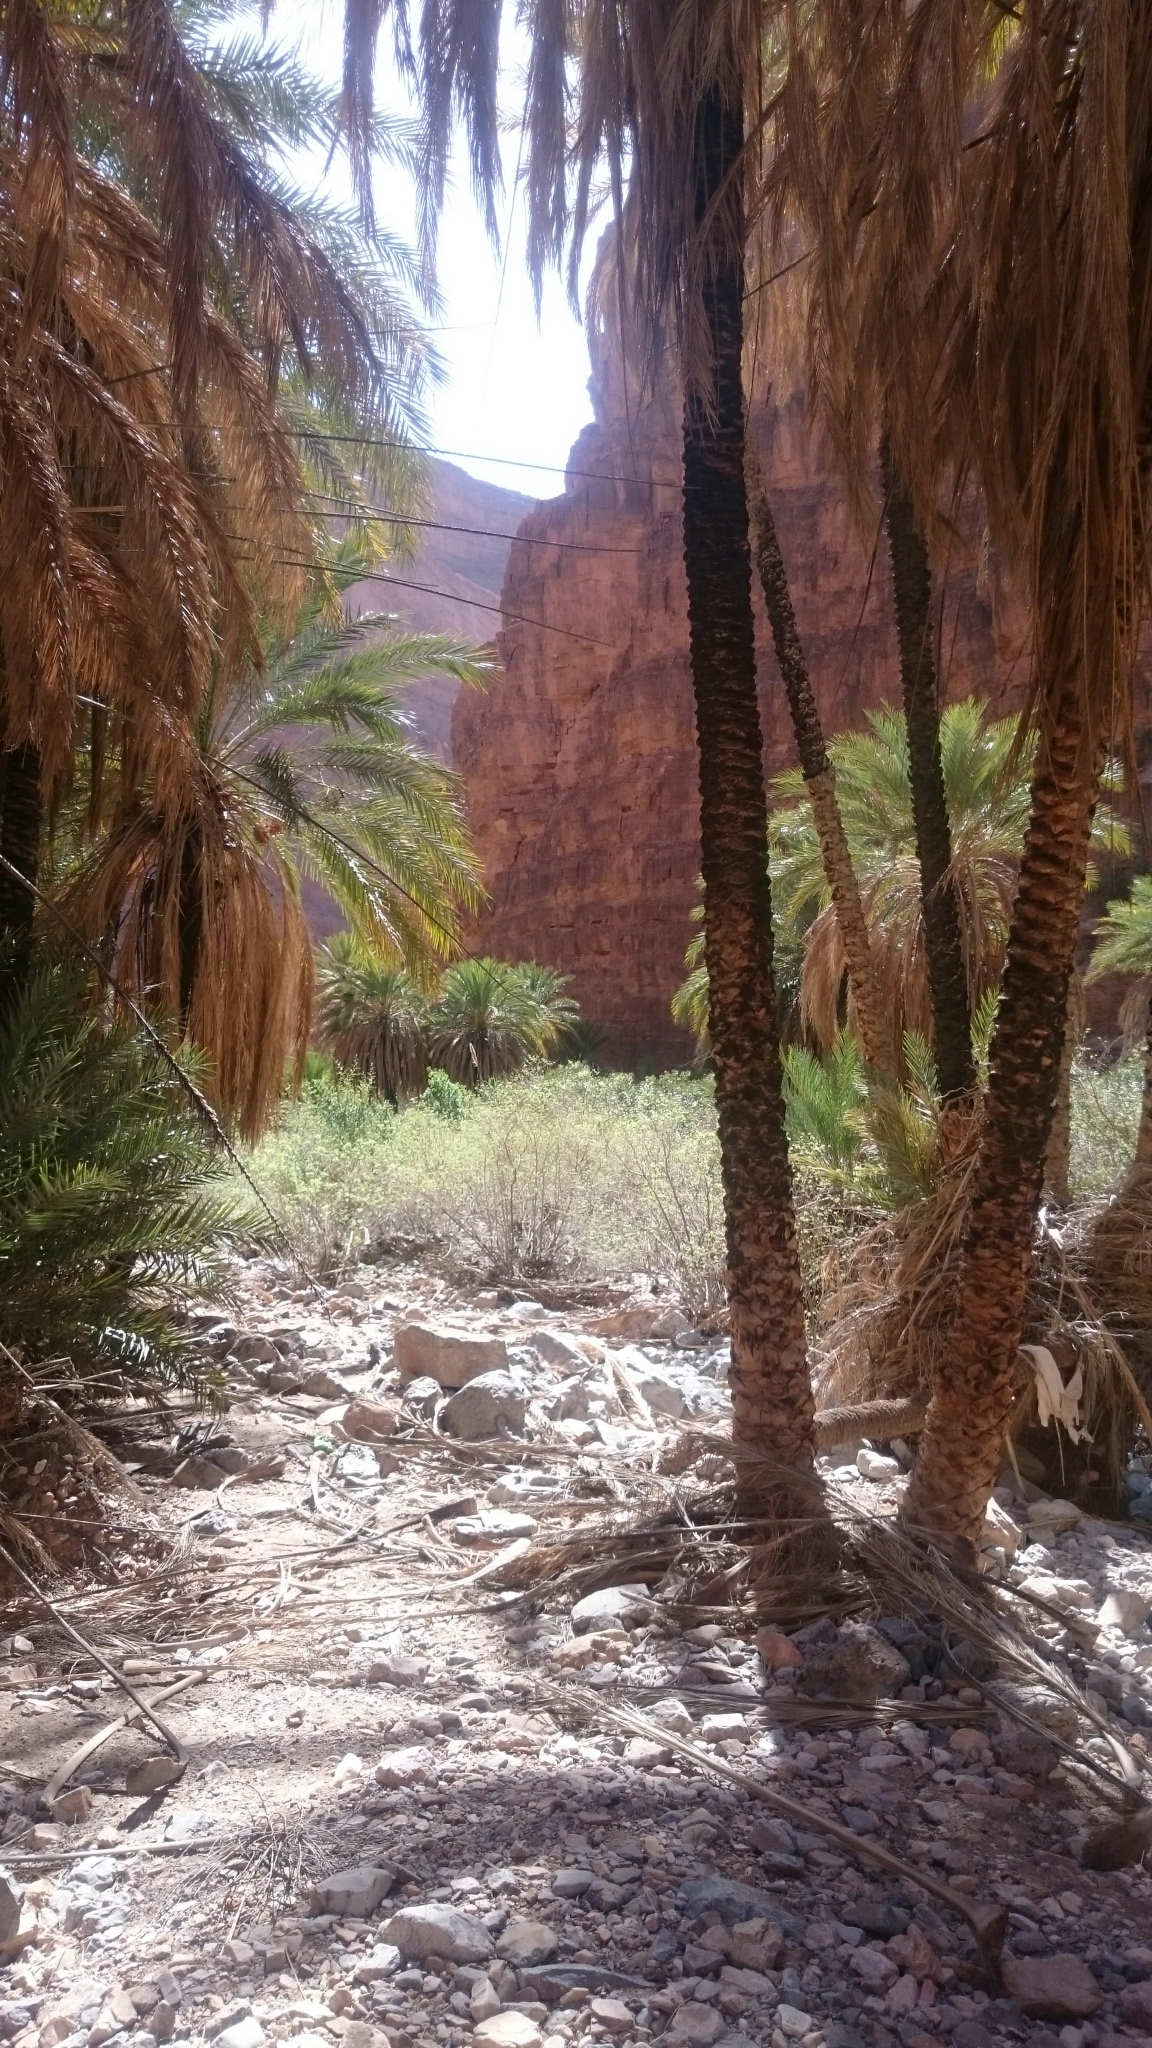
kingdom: Plantae
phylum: Tracheophyta
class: Liliopsida
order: Arecales
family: Arecaceae
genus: Phoenix
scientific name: Phoenix dactylifera
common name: Date palm
